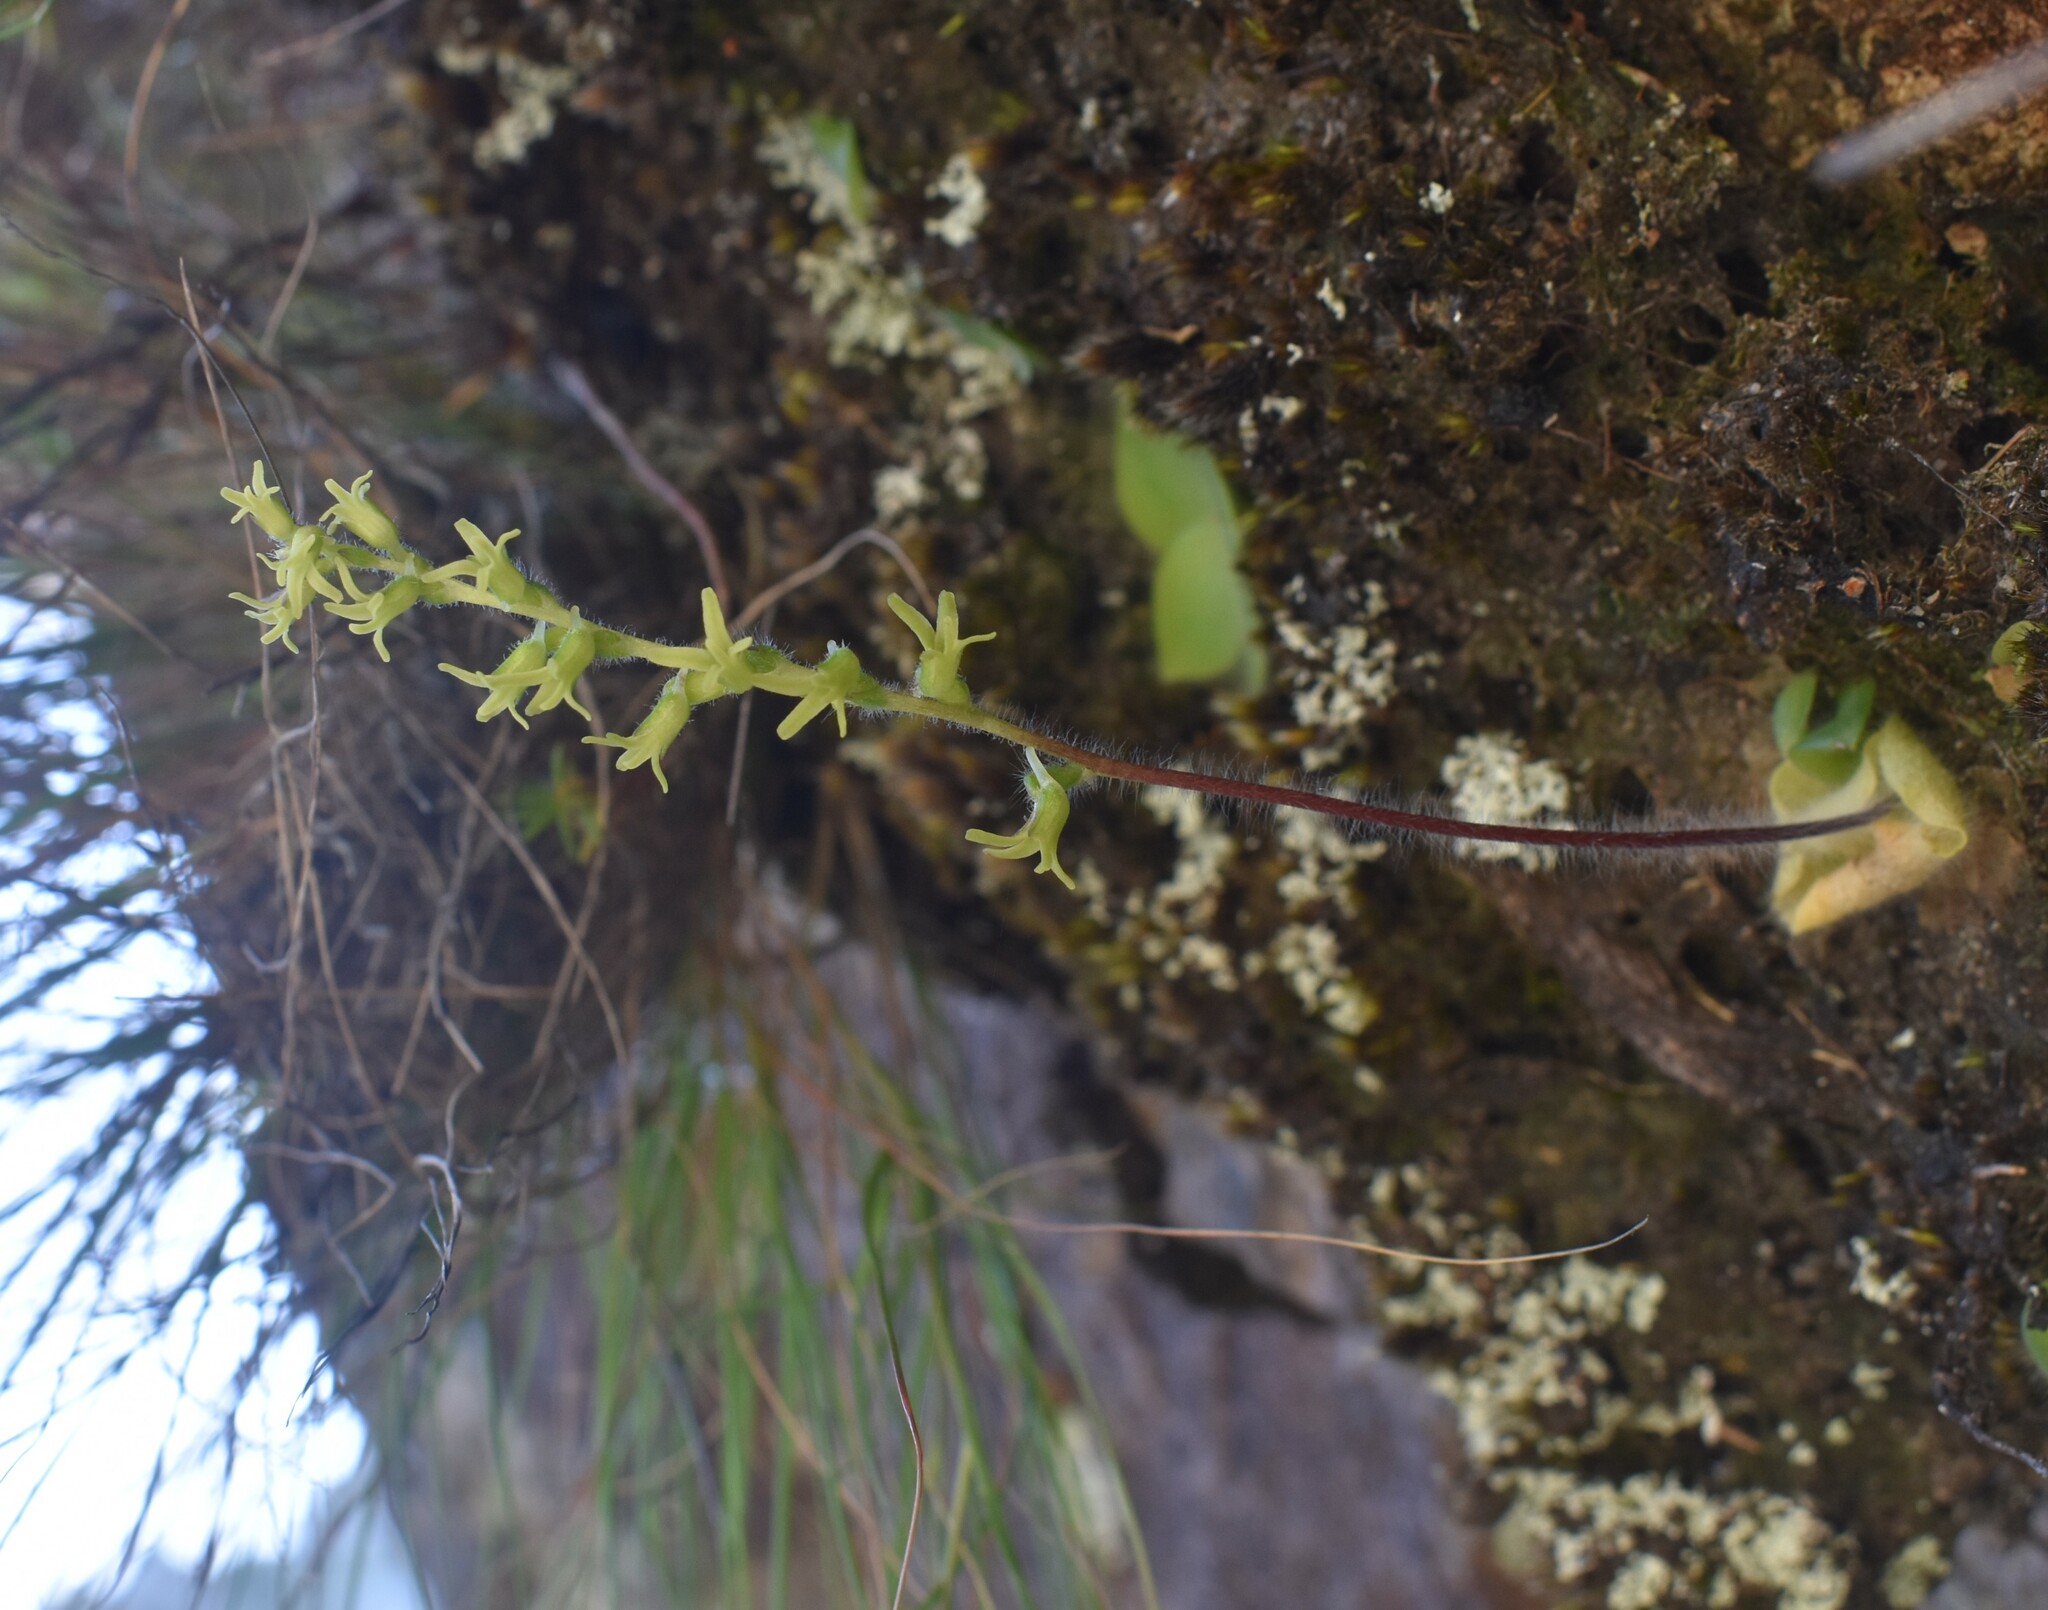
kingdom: Plantae
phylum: Tracheophyta
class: Liliopsida
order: Asparagales
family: Orchidaceae
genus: Holothrix
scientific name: Holothrix villosa
